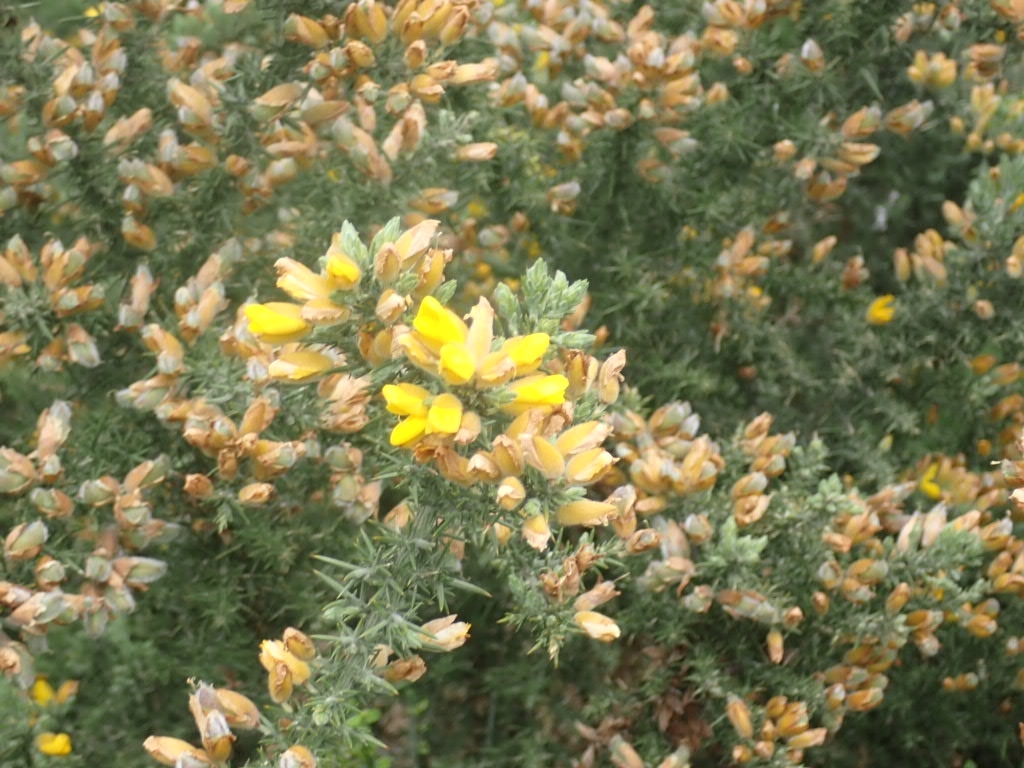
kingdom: Plantae
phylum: Tracheophyta
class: Magnoliopsida
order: Fabales
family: Fabaceae
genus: Ulex
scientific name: Ulex europaeus
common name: Common gorse
